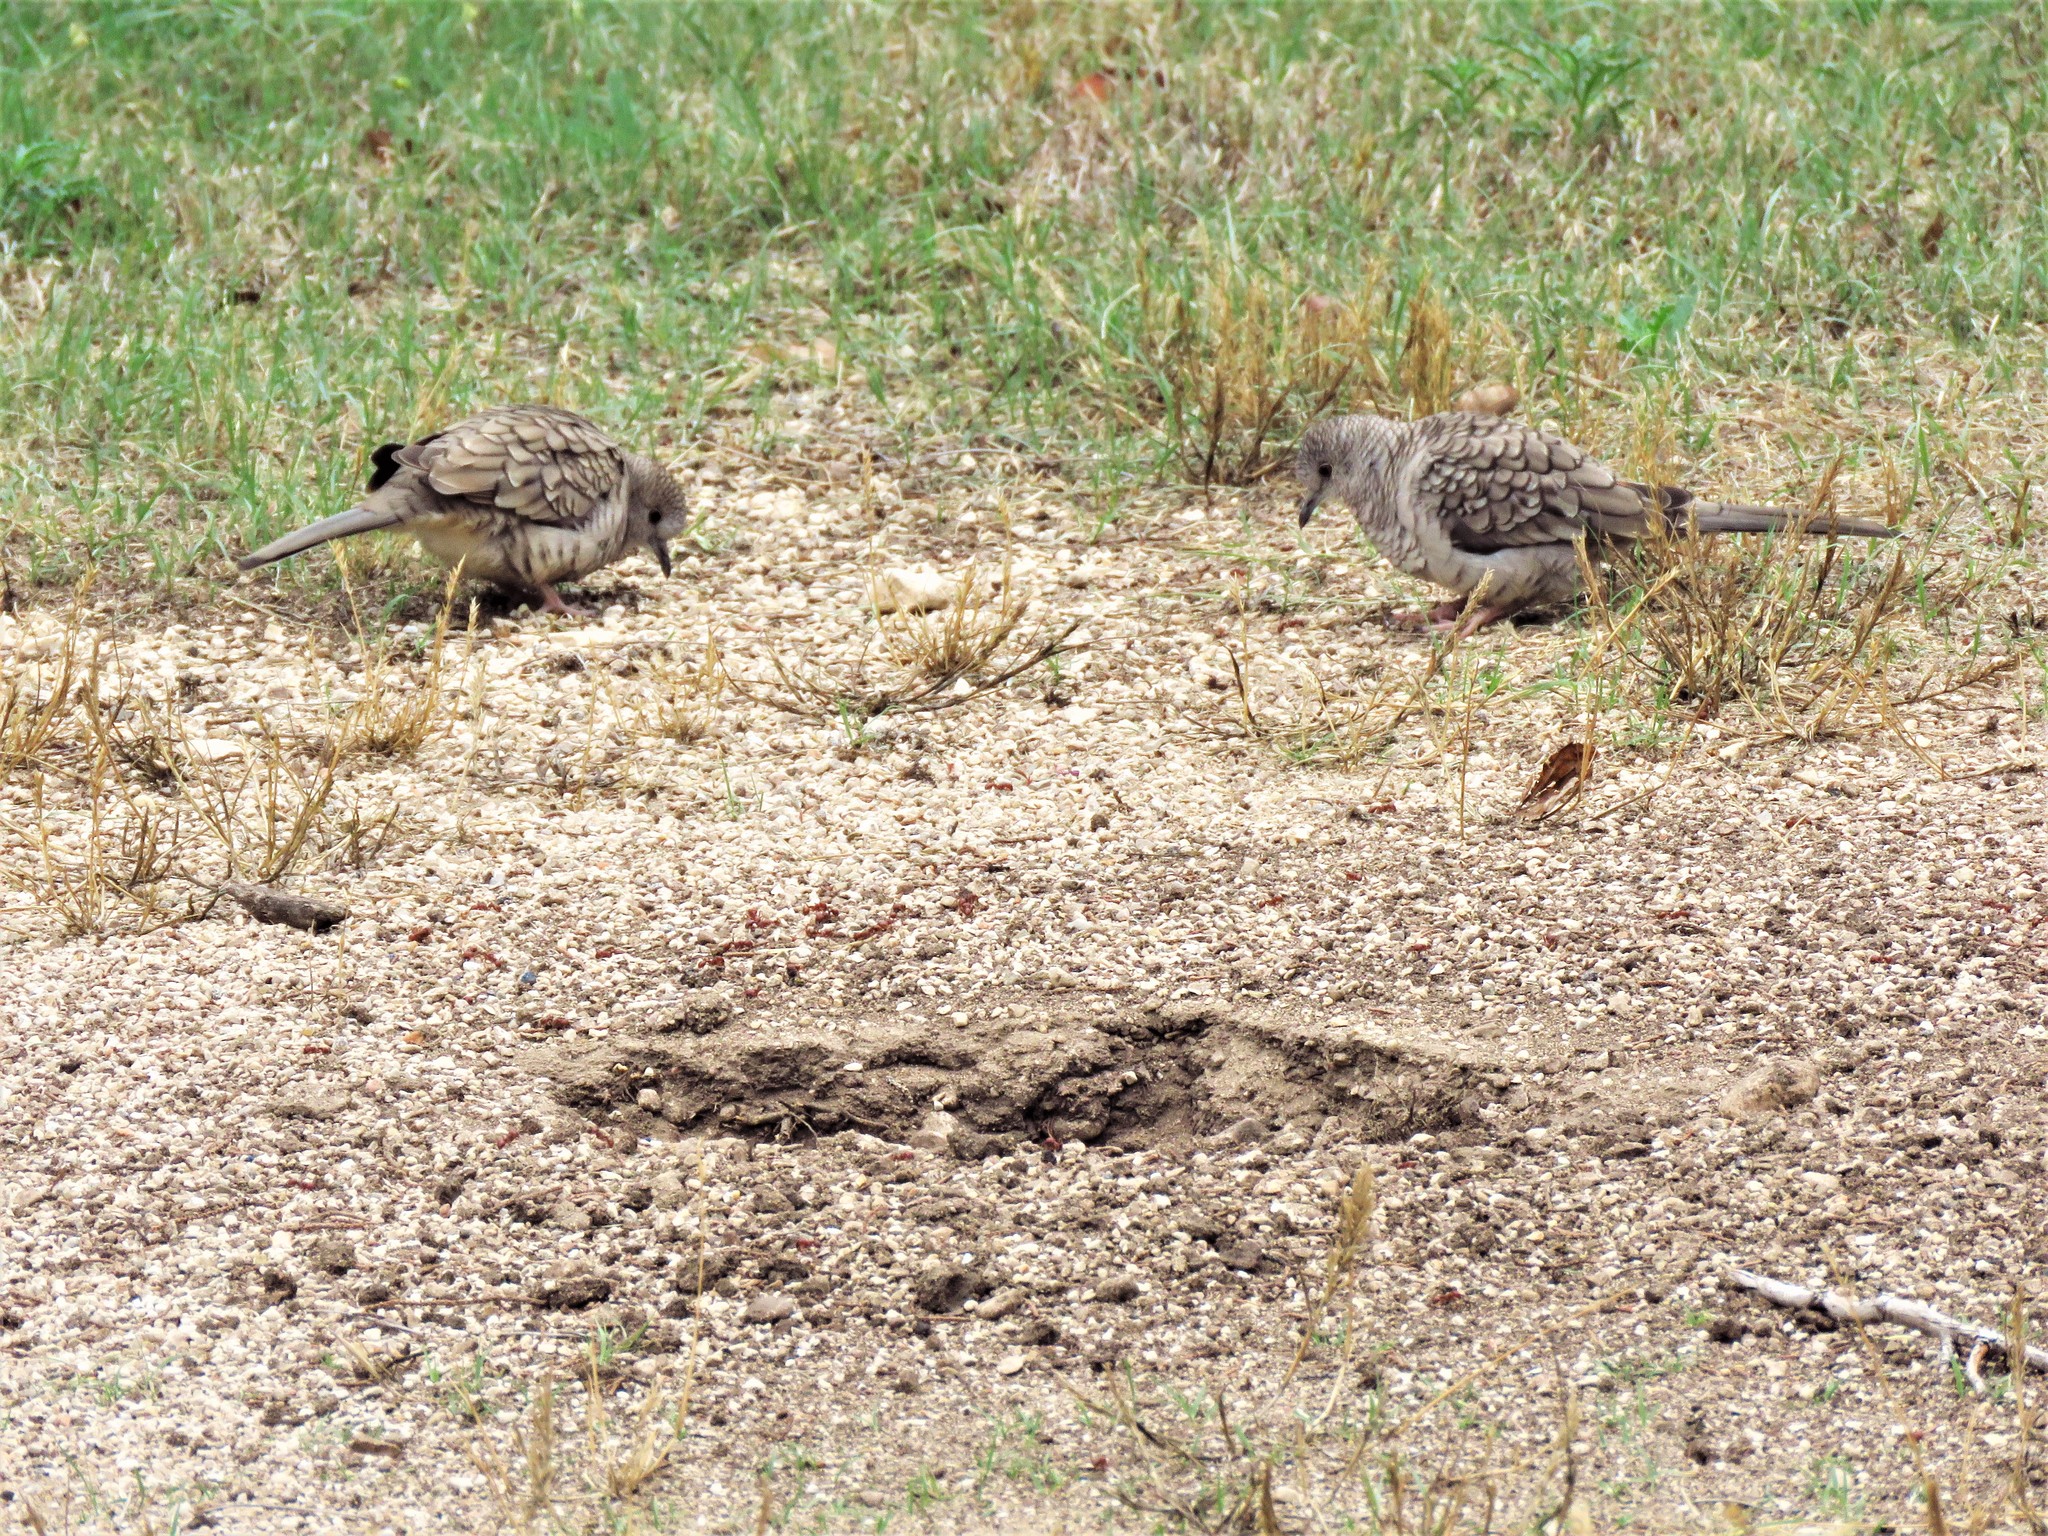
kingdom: Animalia
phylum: Chordata
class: Aves
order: Columbiformes
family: Columbidae
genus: Columbina
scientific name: Columbina inca
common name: Inca dove
